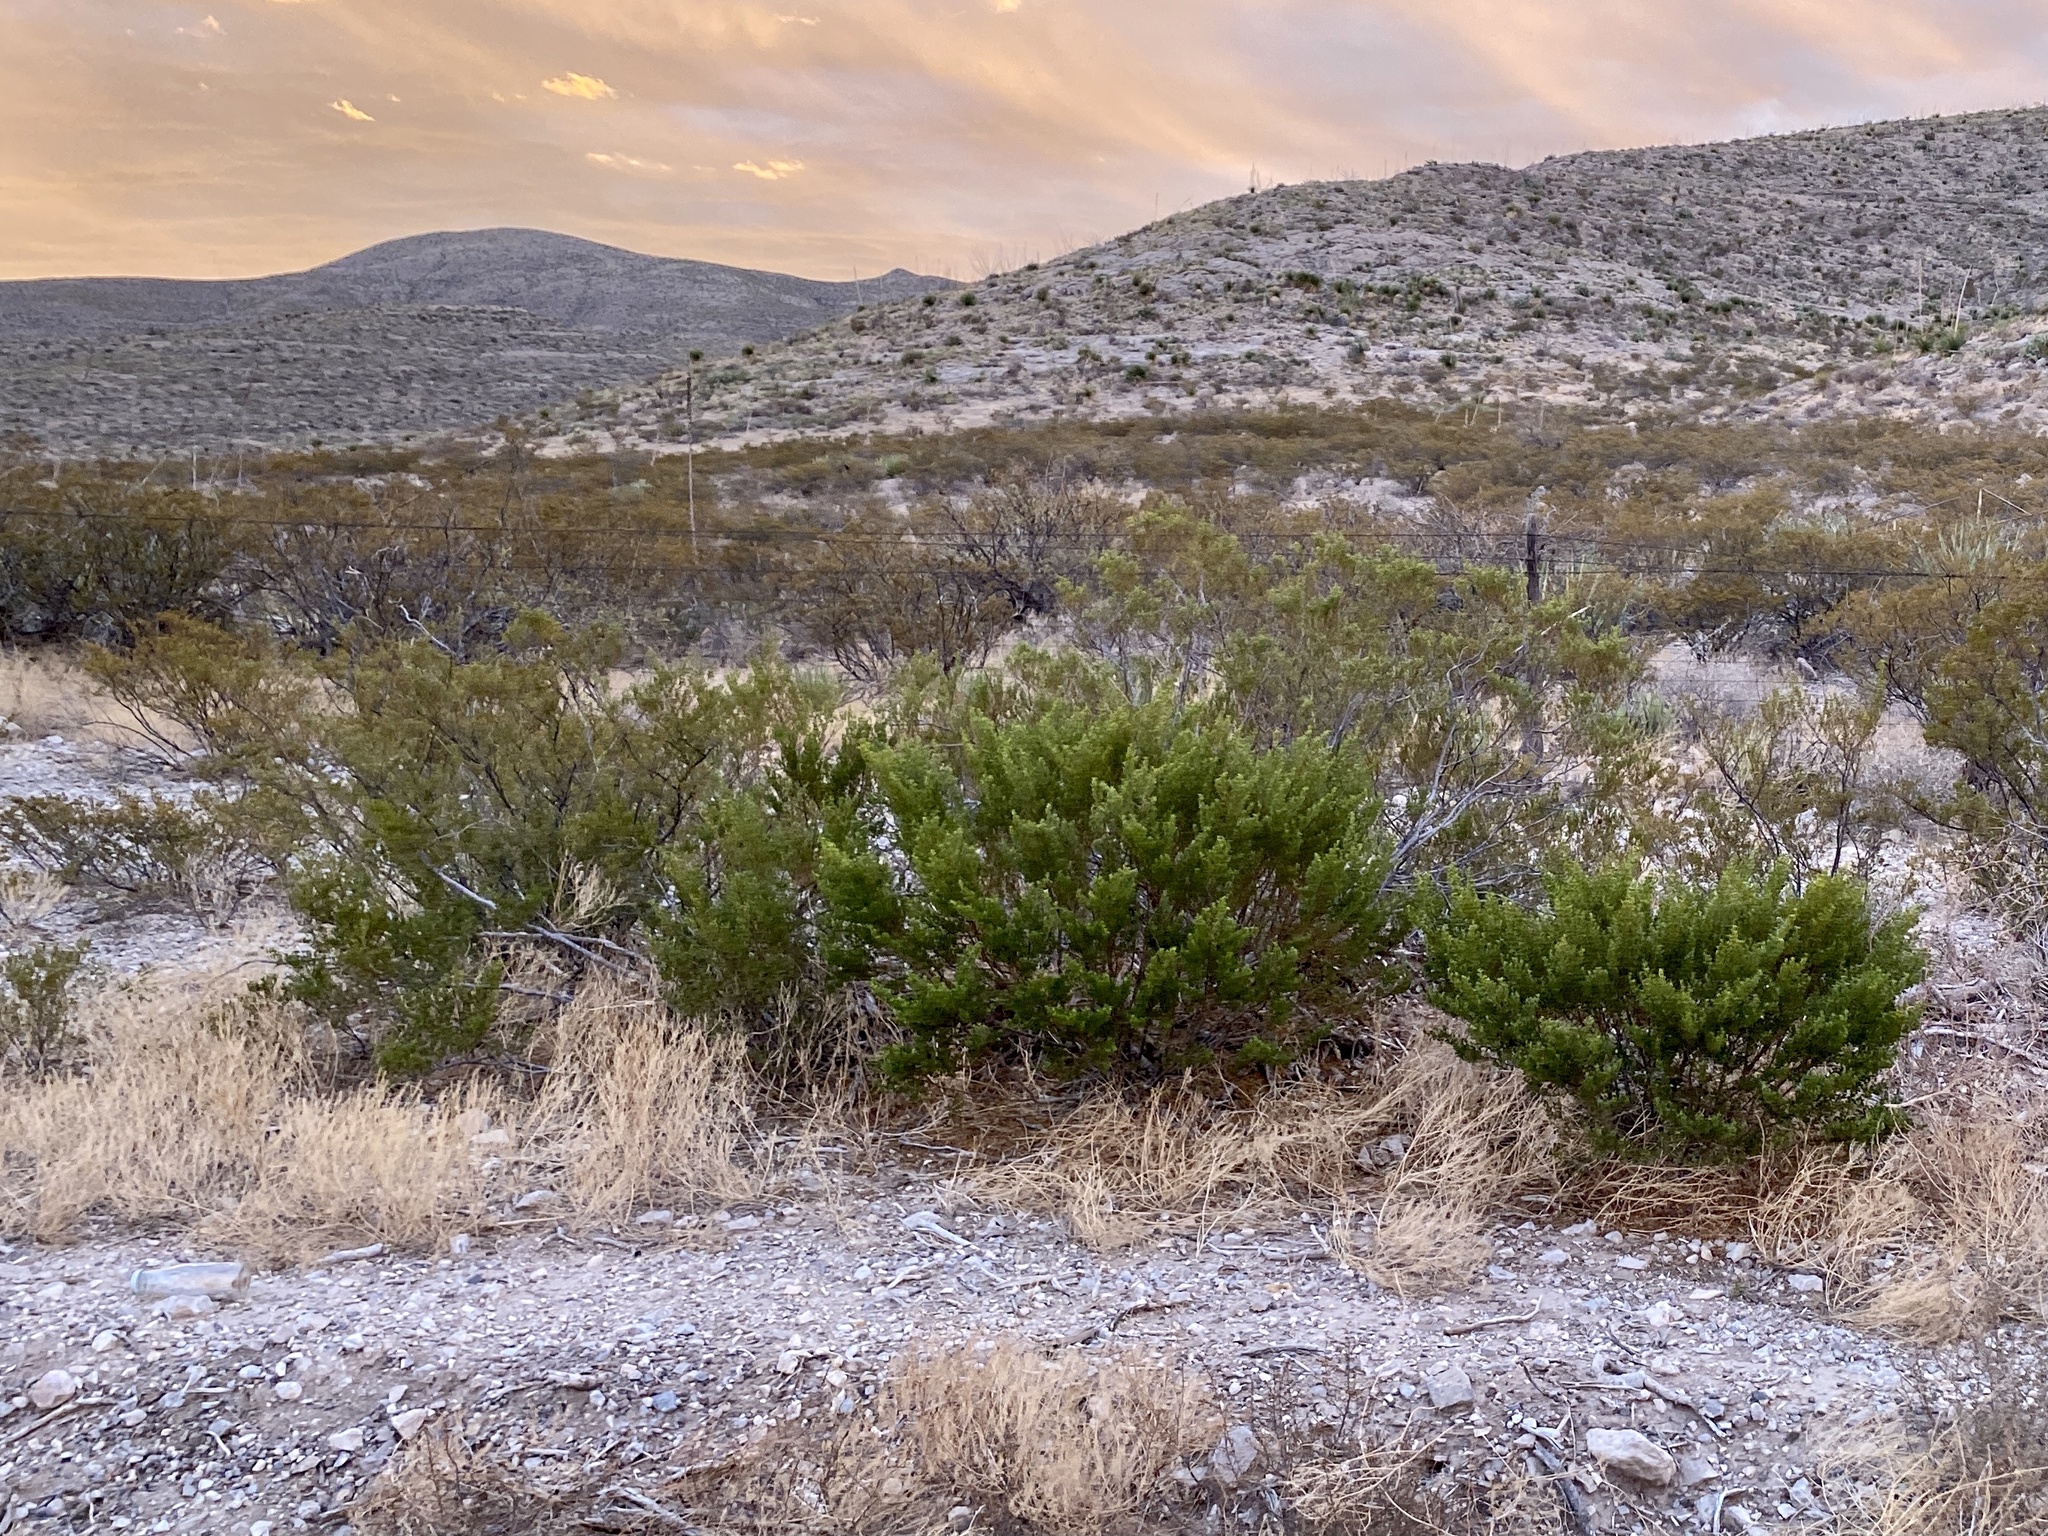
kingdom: Plantae
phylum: Tracheophyta
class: Magnoliopsida
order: Zygophyllales
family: Zygophyllaceae
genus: Larrea
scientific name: Larrea tridentata
